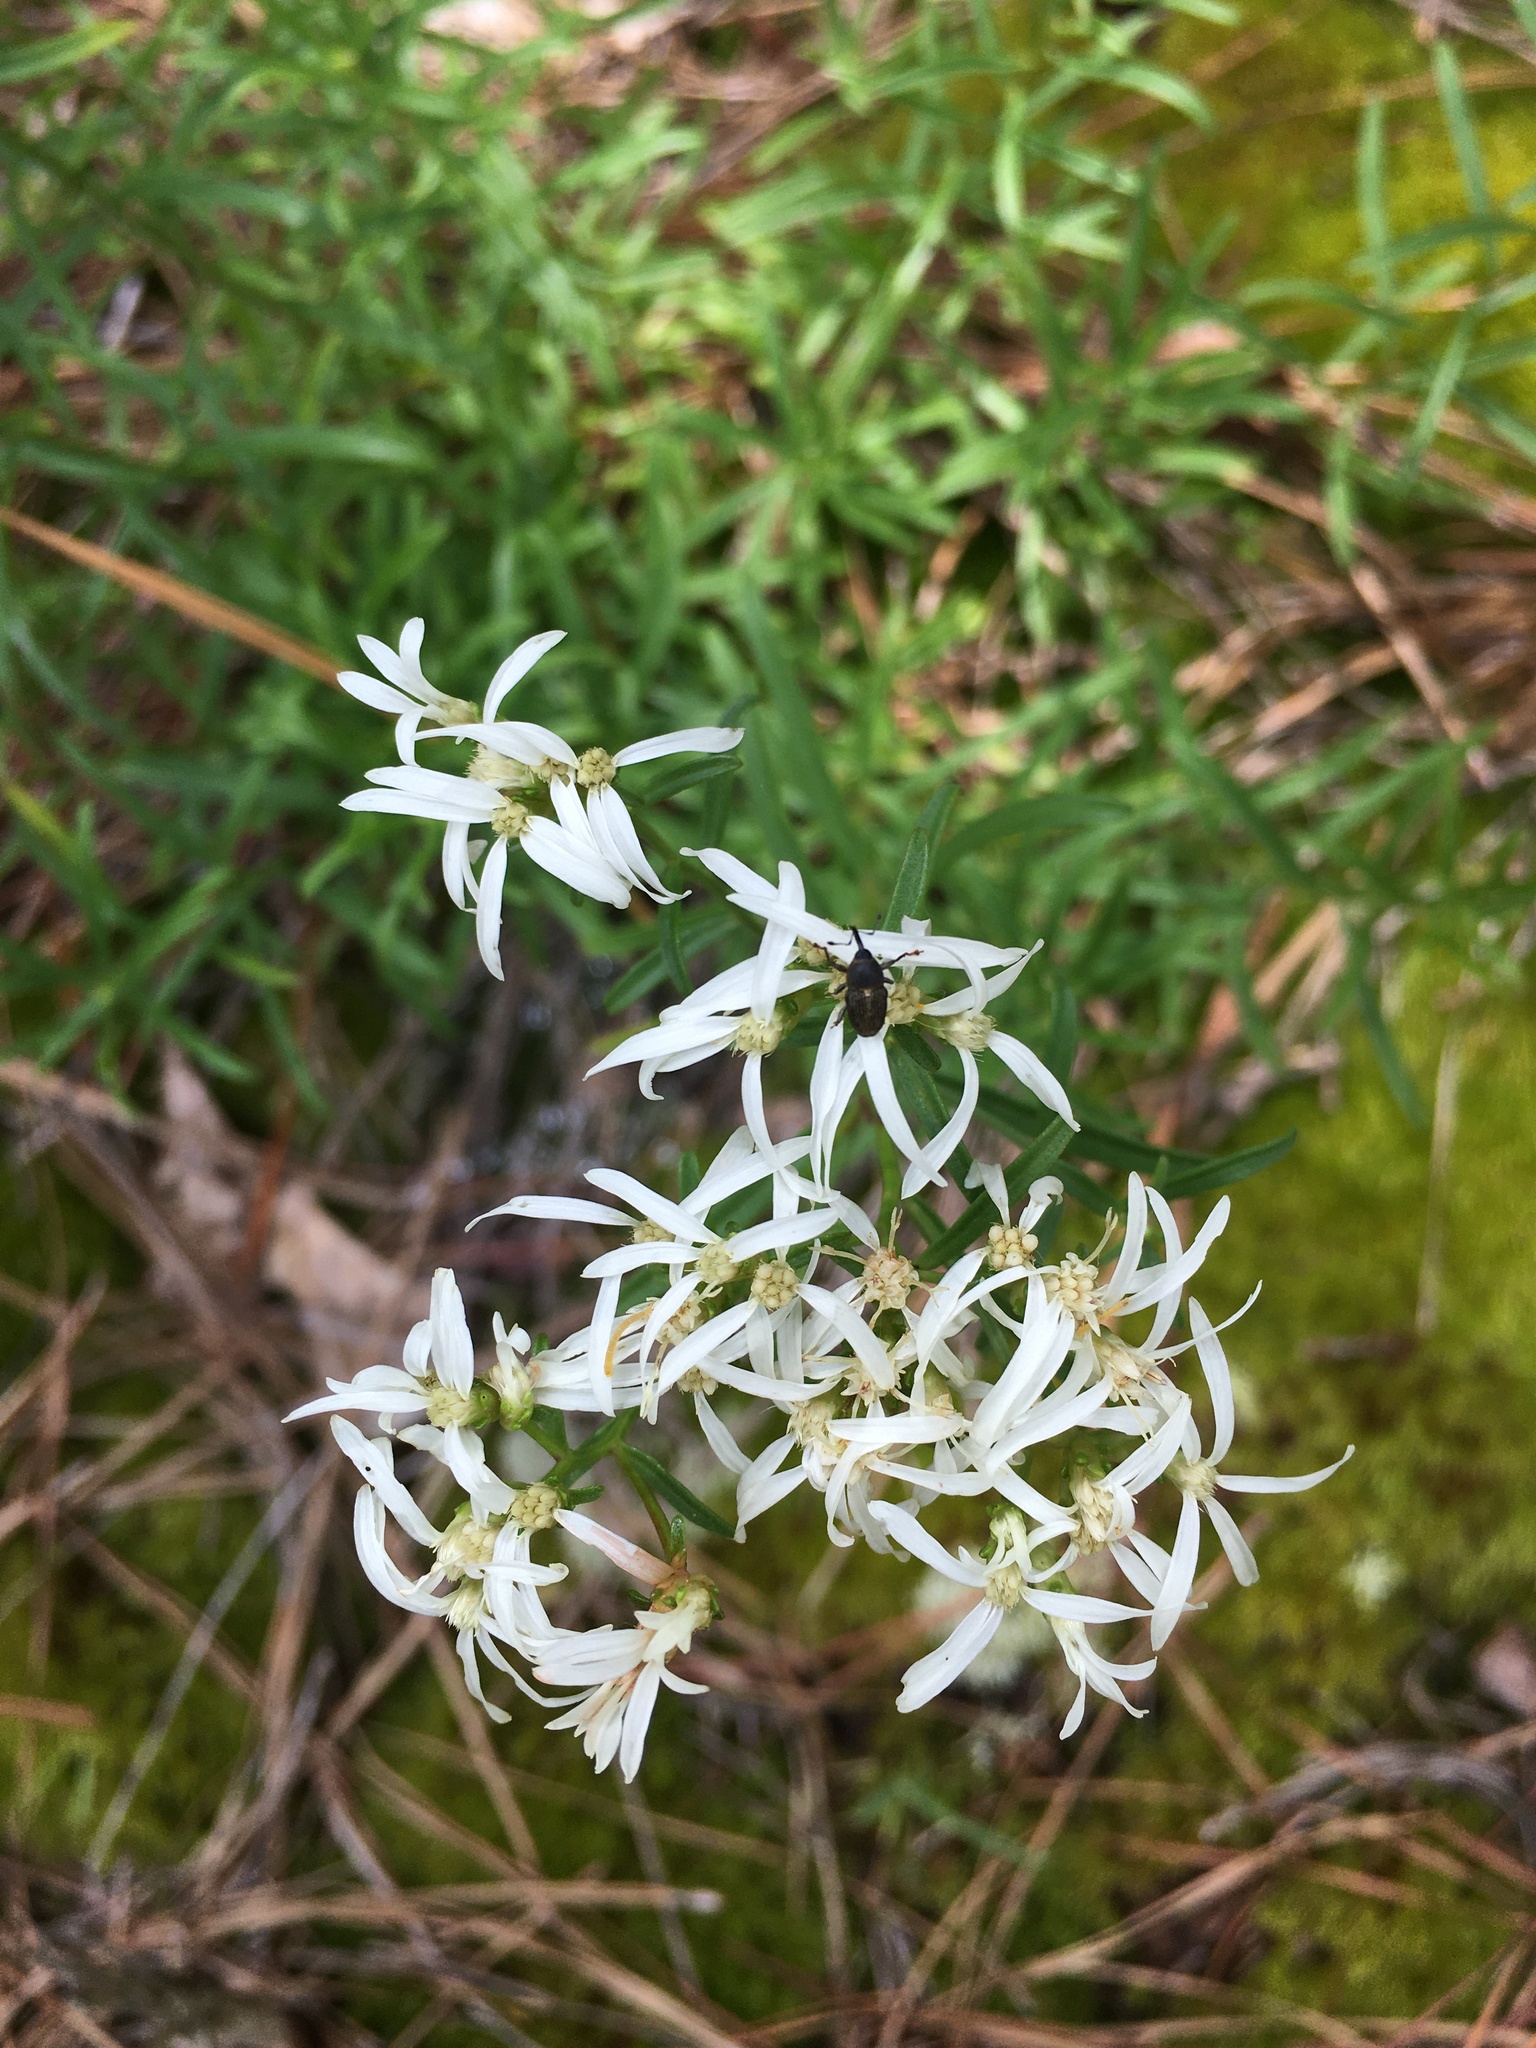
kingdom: Plantae
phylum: Tracheophyta
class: Magnoliopsida
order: Asterales
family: Asteraceae
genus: Sericocarpus
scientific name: Sericocarpus linifolius
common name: Narrow-leaf aster
